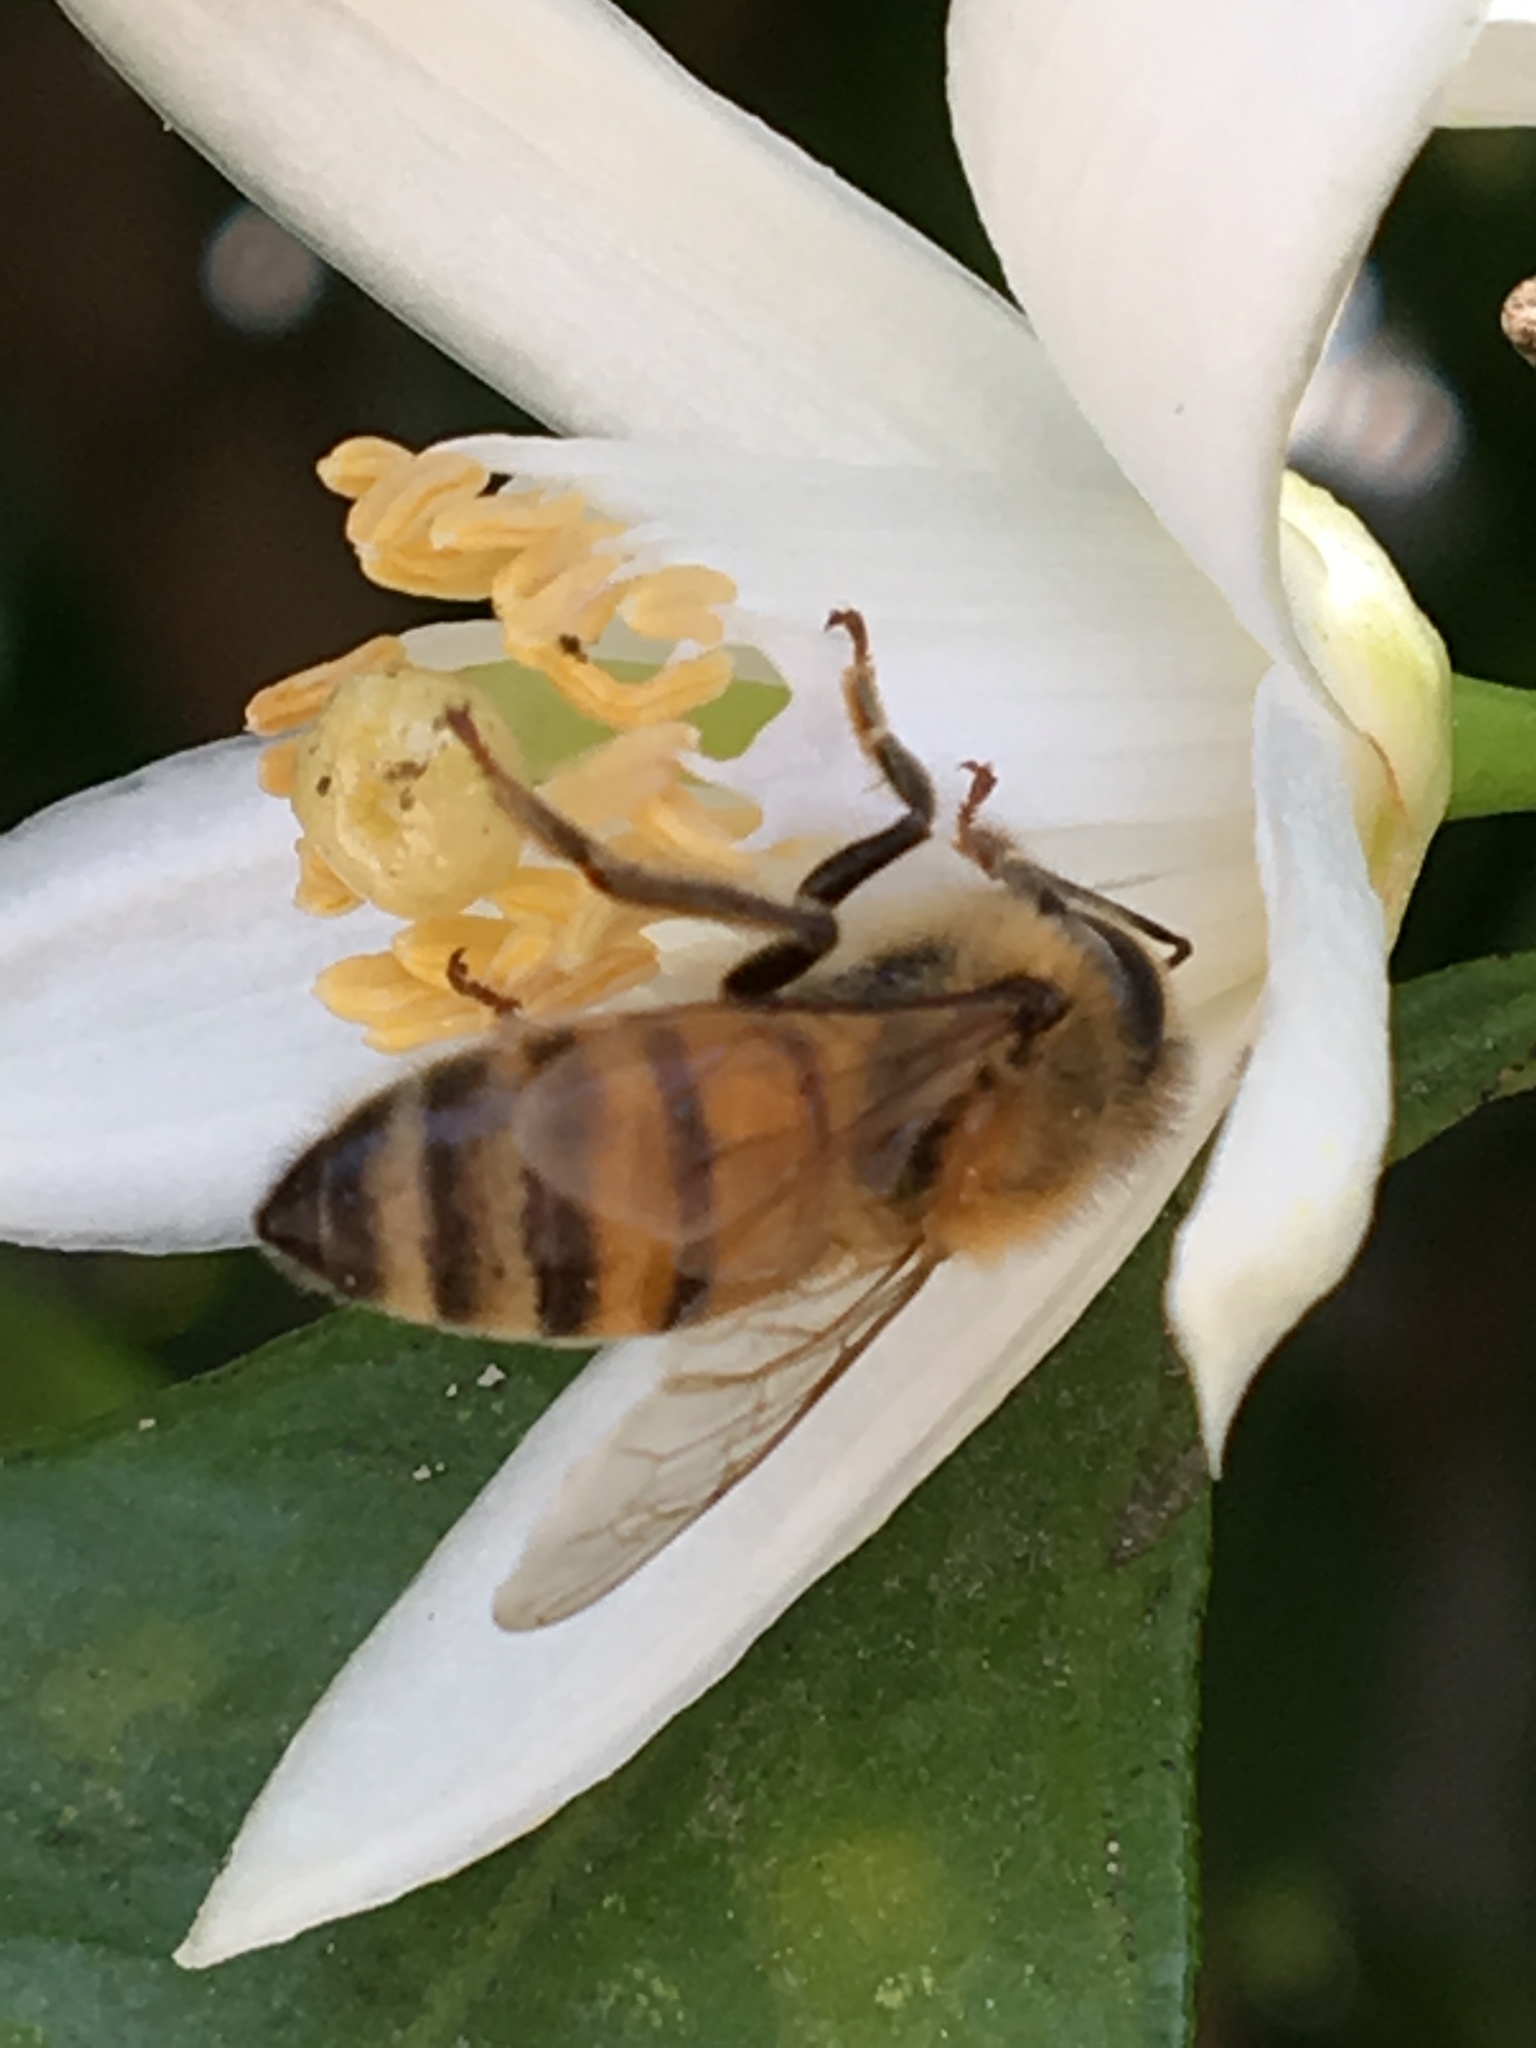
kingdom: Animalia
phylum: Arthropoda
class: Insecta
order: Hymenoptera
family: Apidae
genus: Apis
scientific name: Apis mellifera
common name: Honey bee
